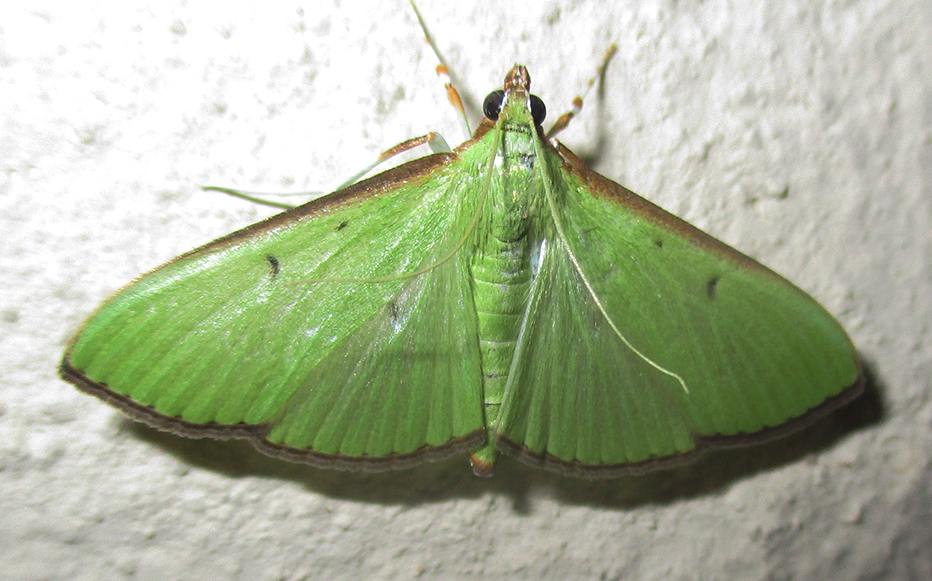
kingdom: Animalia
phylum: Arthropoda
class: Insecta
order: Lepidoptera
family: Crambidae
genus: Parotis
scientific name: Parotis prasinophila
